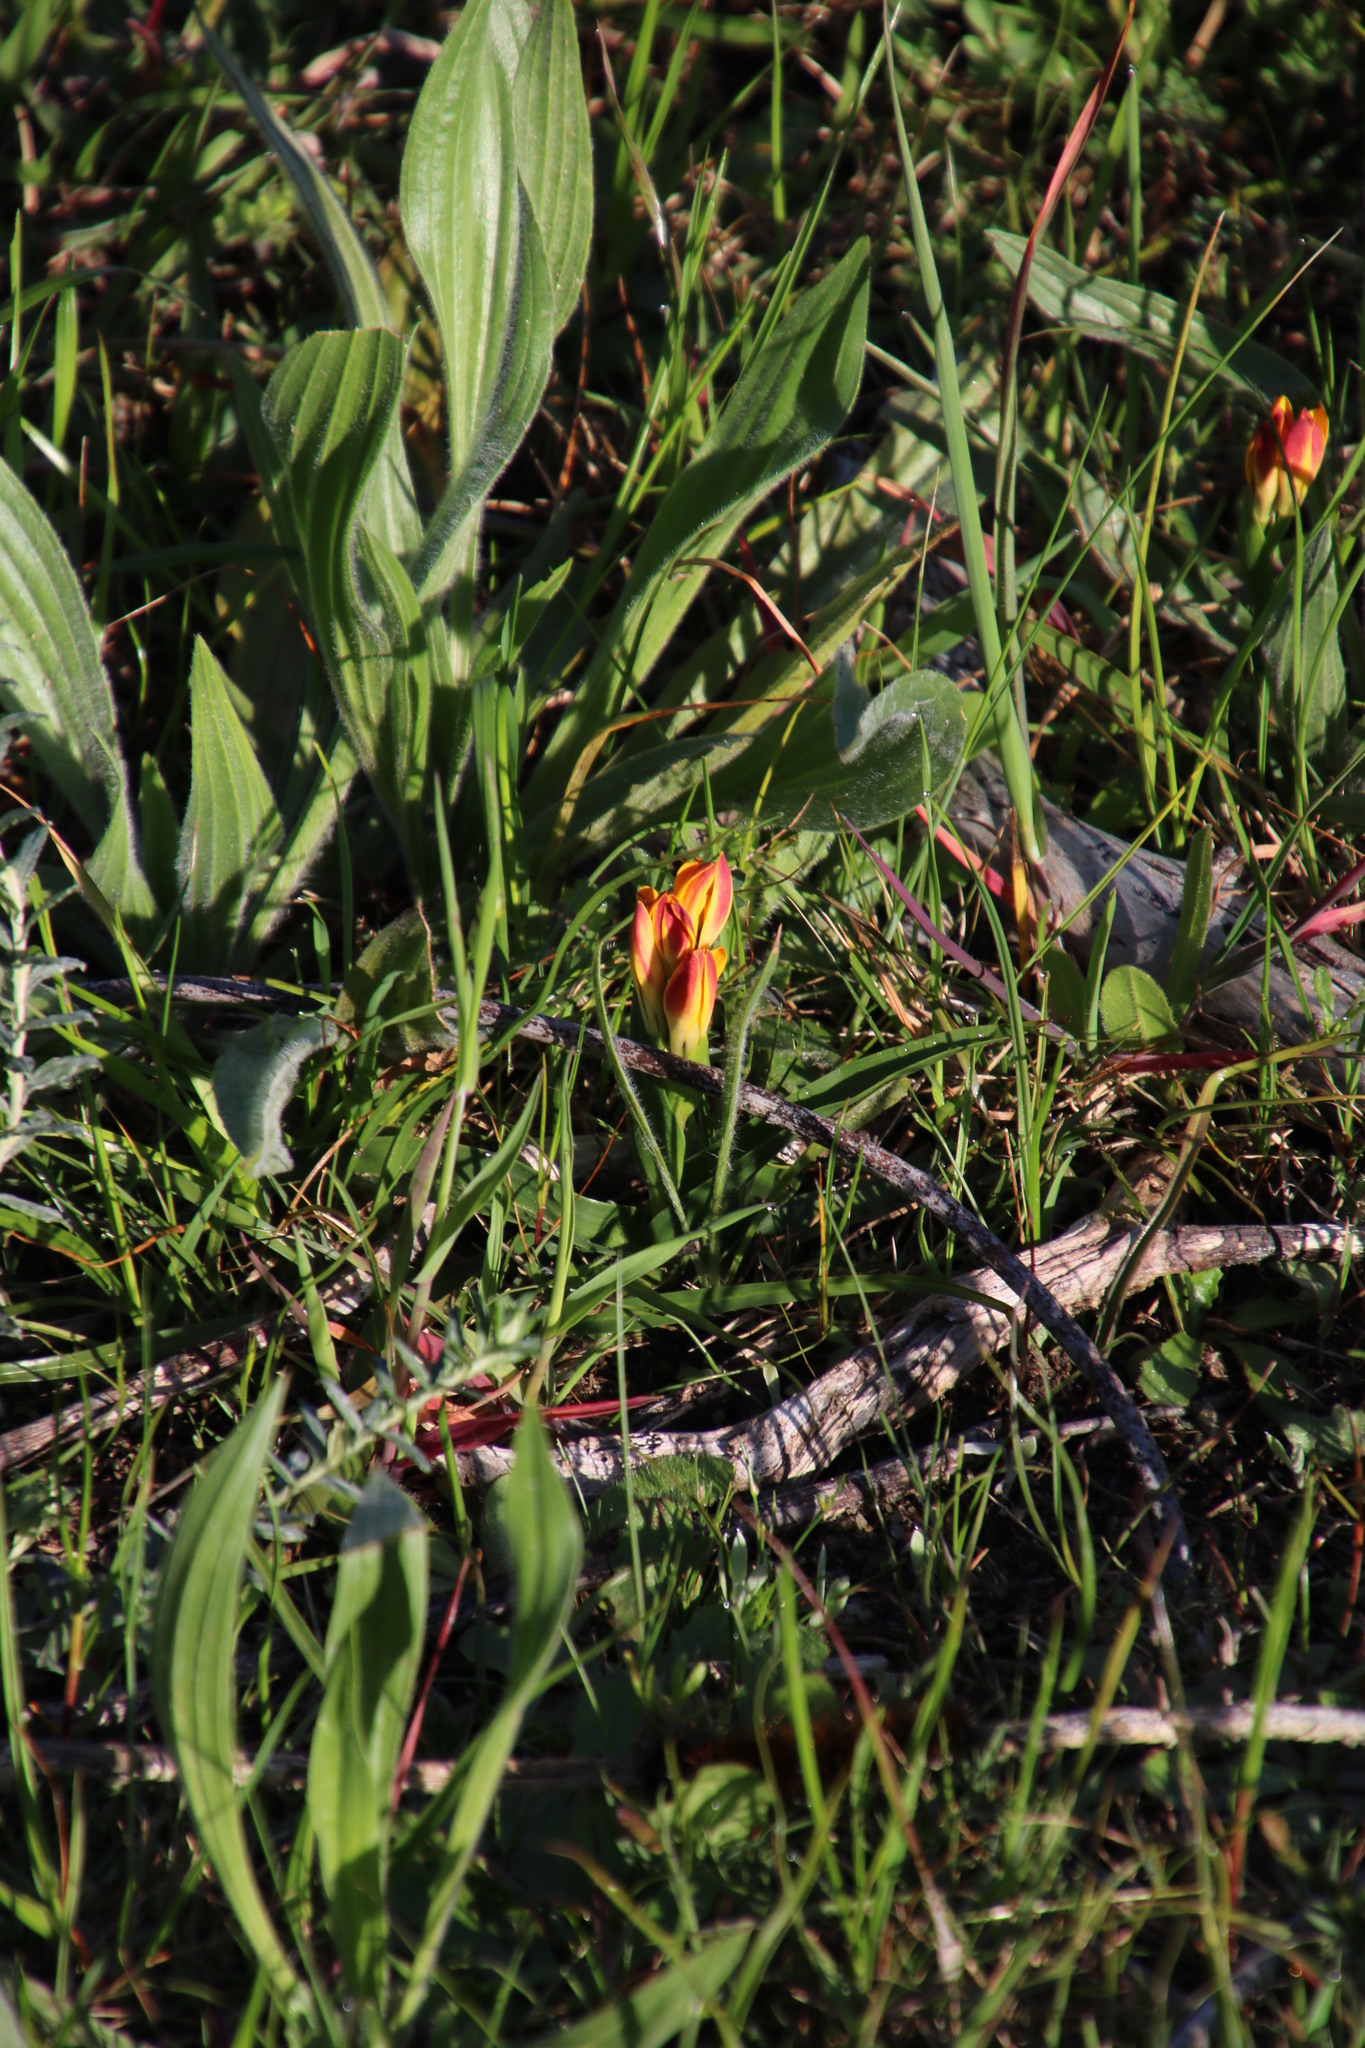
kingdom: Plantae
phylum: Tracheophyta
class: Liliopsida
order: Liliales
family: Colchicaceae
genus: Baeometra
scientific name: Baeometra uniflora
